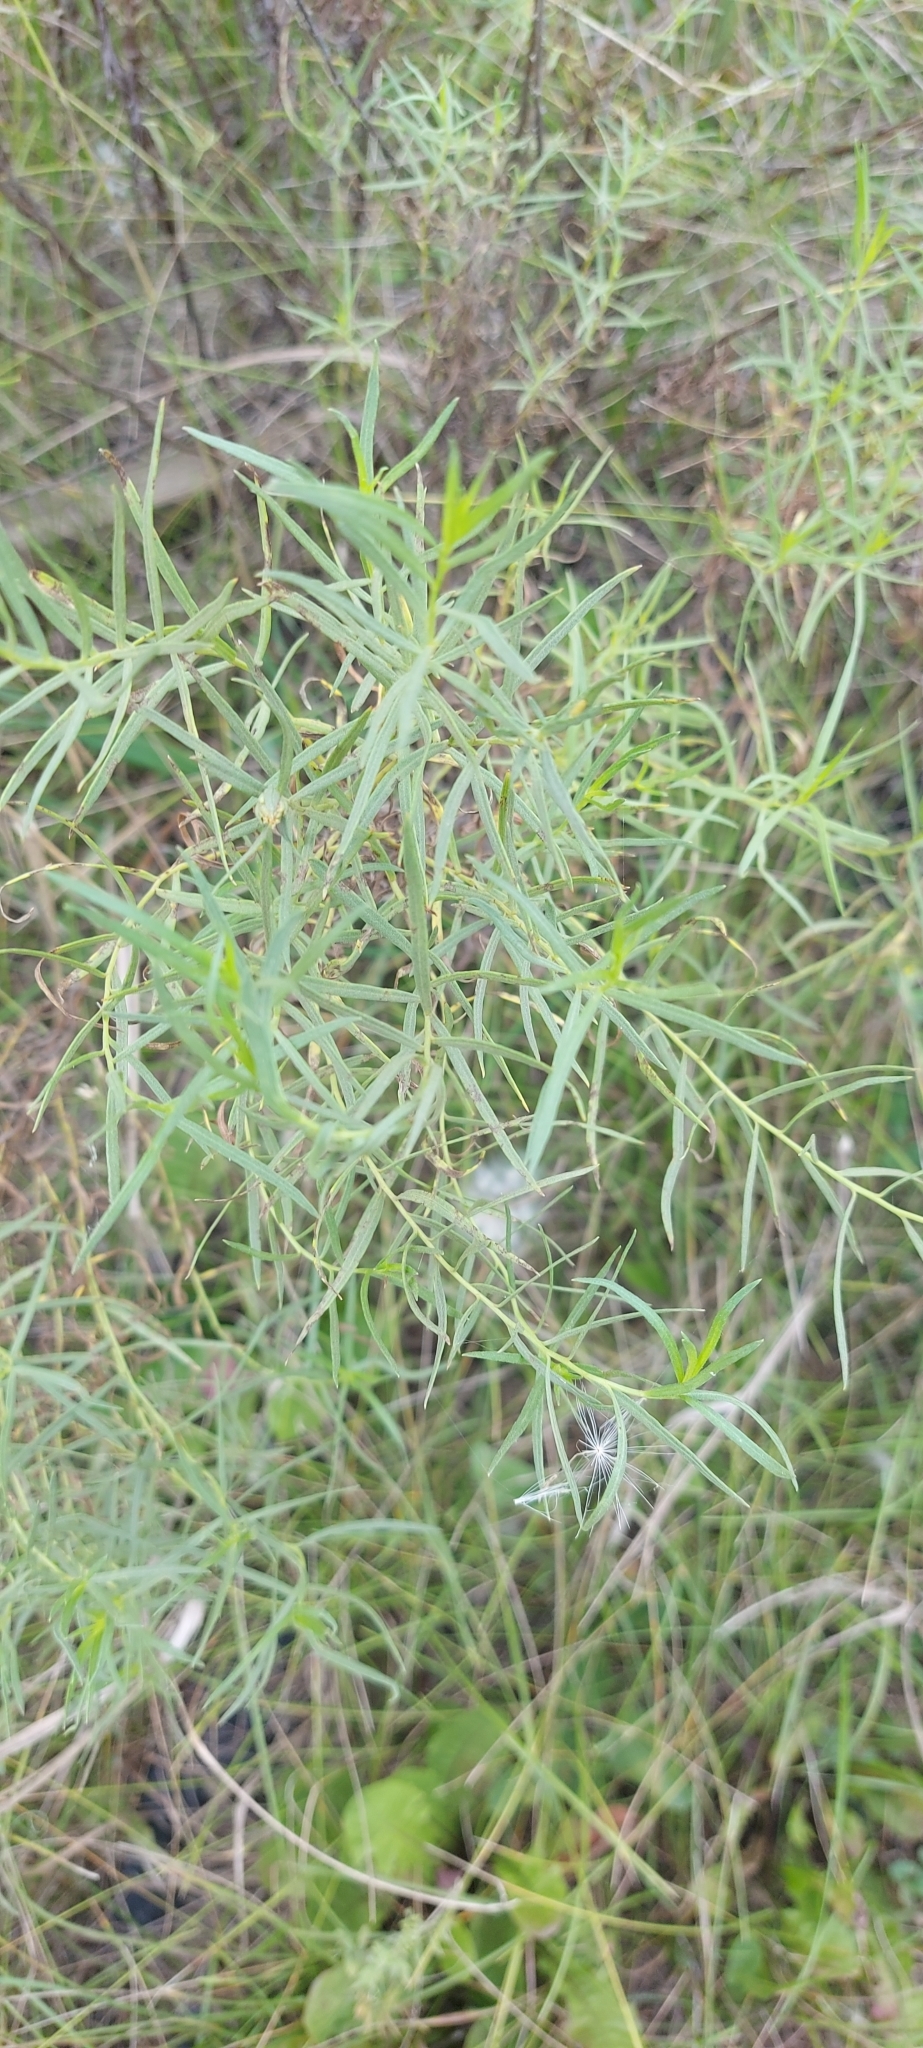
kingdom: Plantae
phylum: Tracheophyta
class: Magnoliopsida
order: Asterales
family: Asteraceae
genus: Artemisia
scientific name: Artemisia dracunculus
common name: Tarragon
